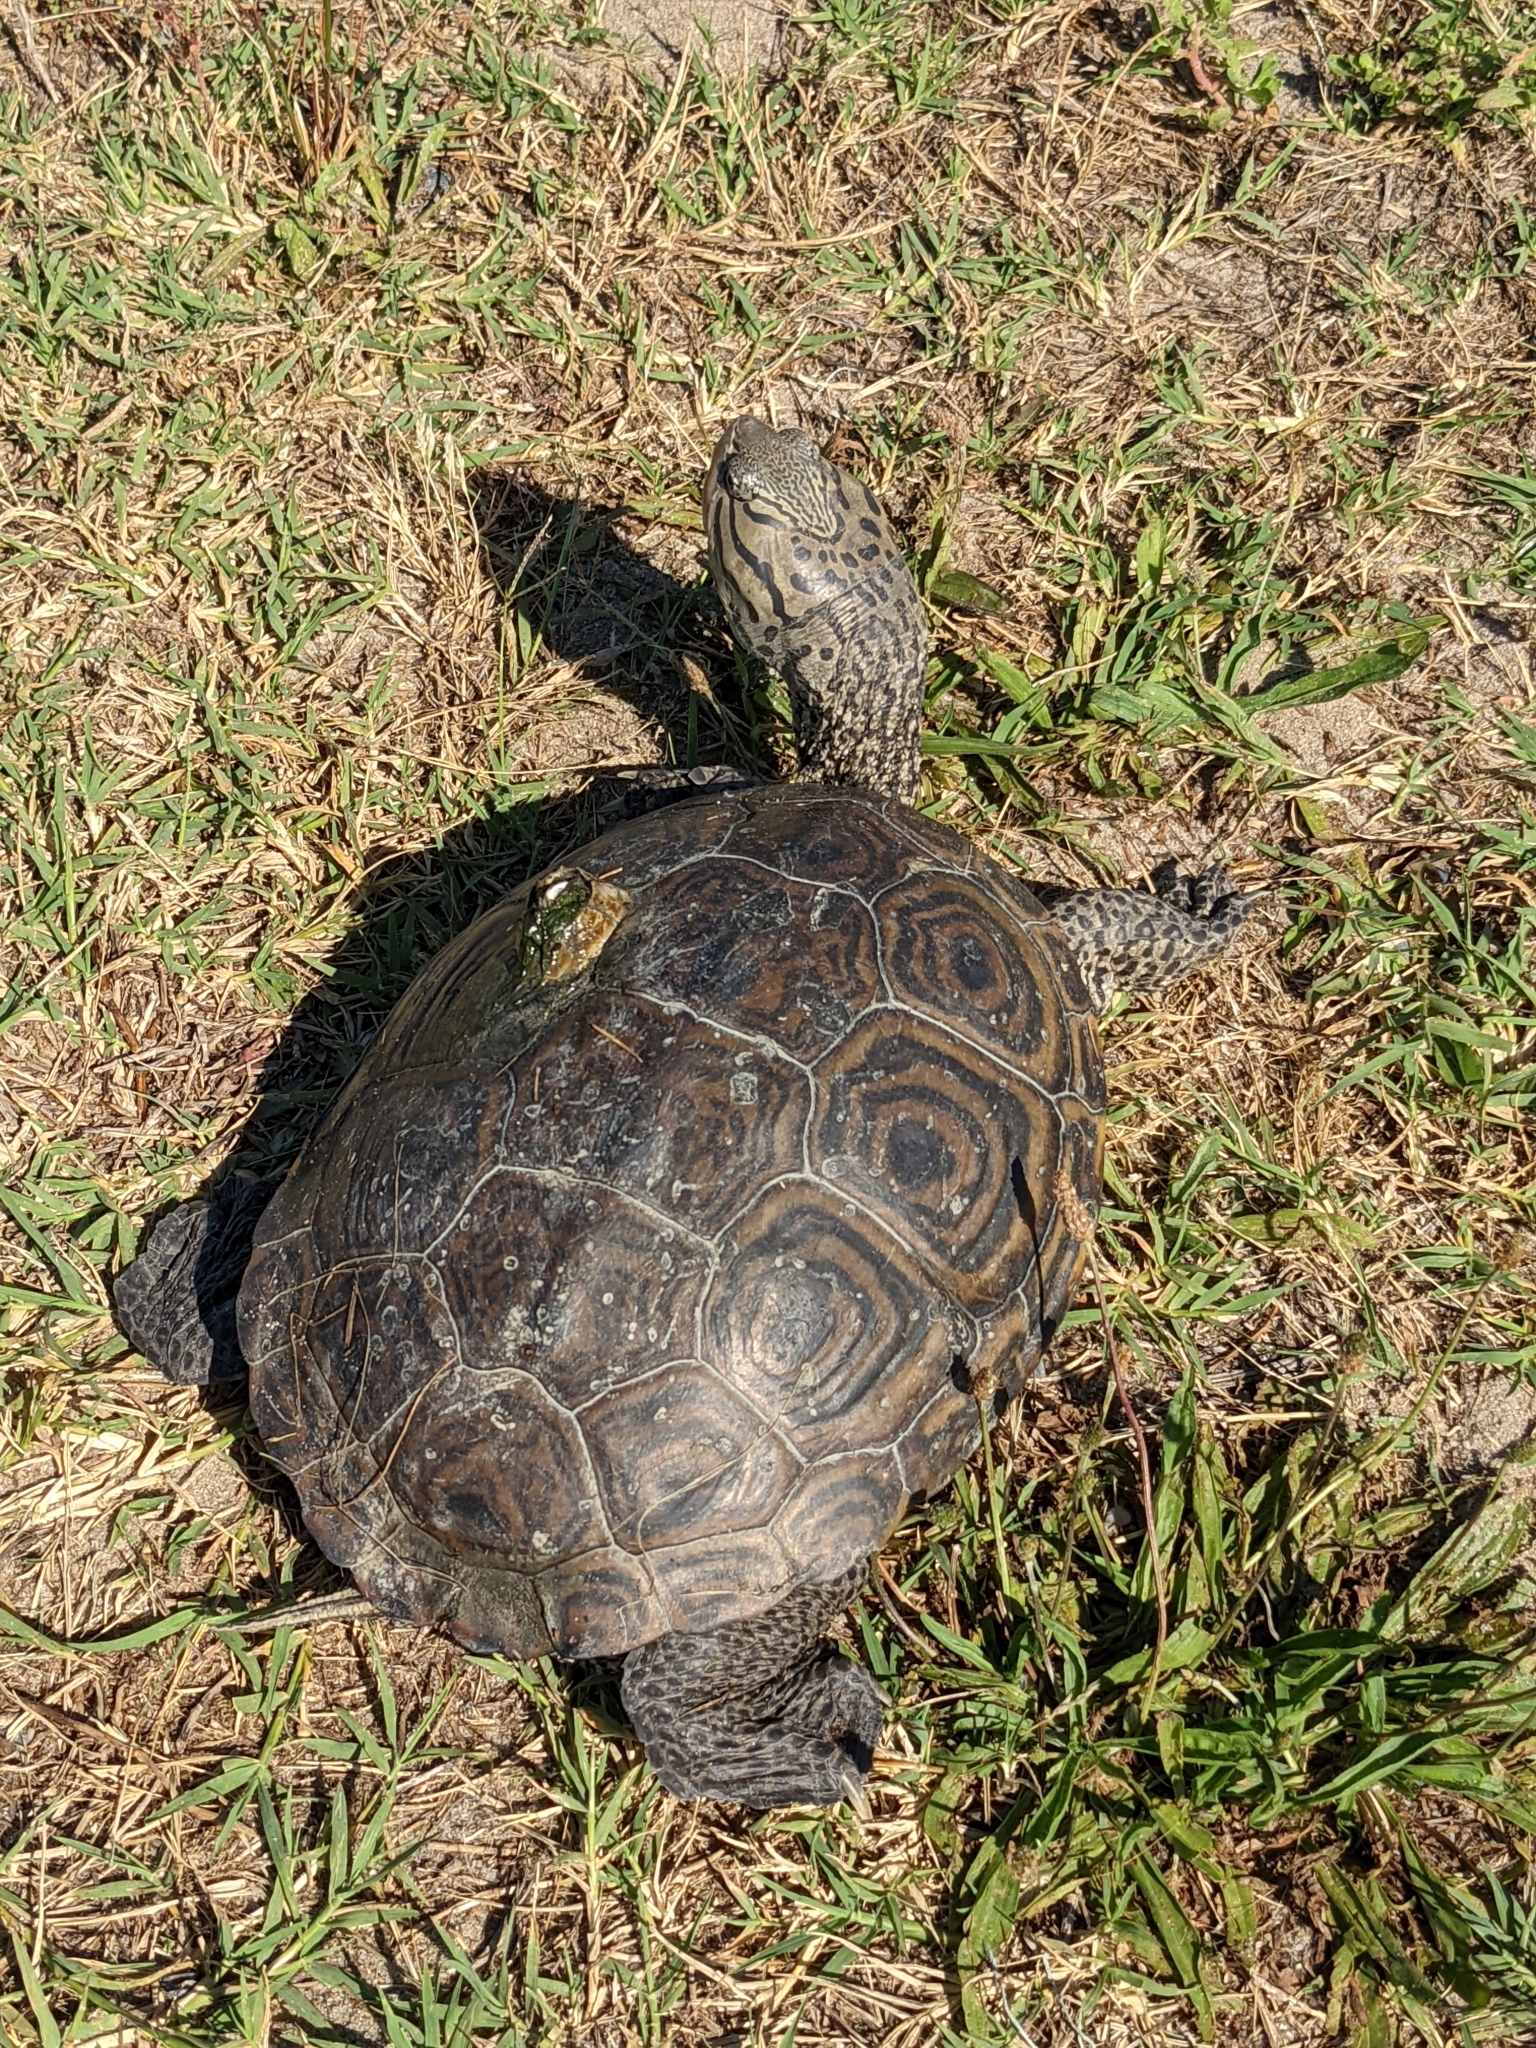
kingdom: Animalia
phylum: Chordata
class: Testudines
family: Emydidae
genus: Malaclemys
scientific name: Malaclemys terrapin
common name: Diamondback terrapin
